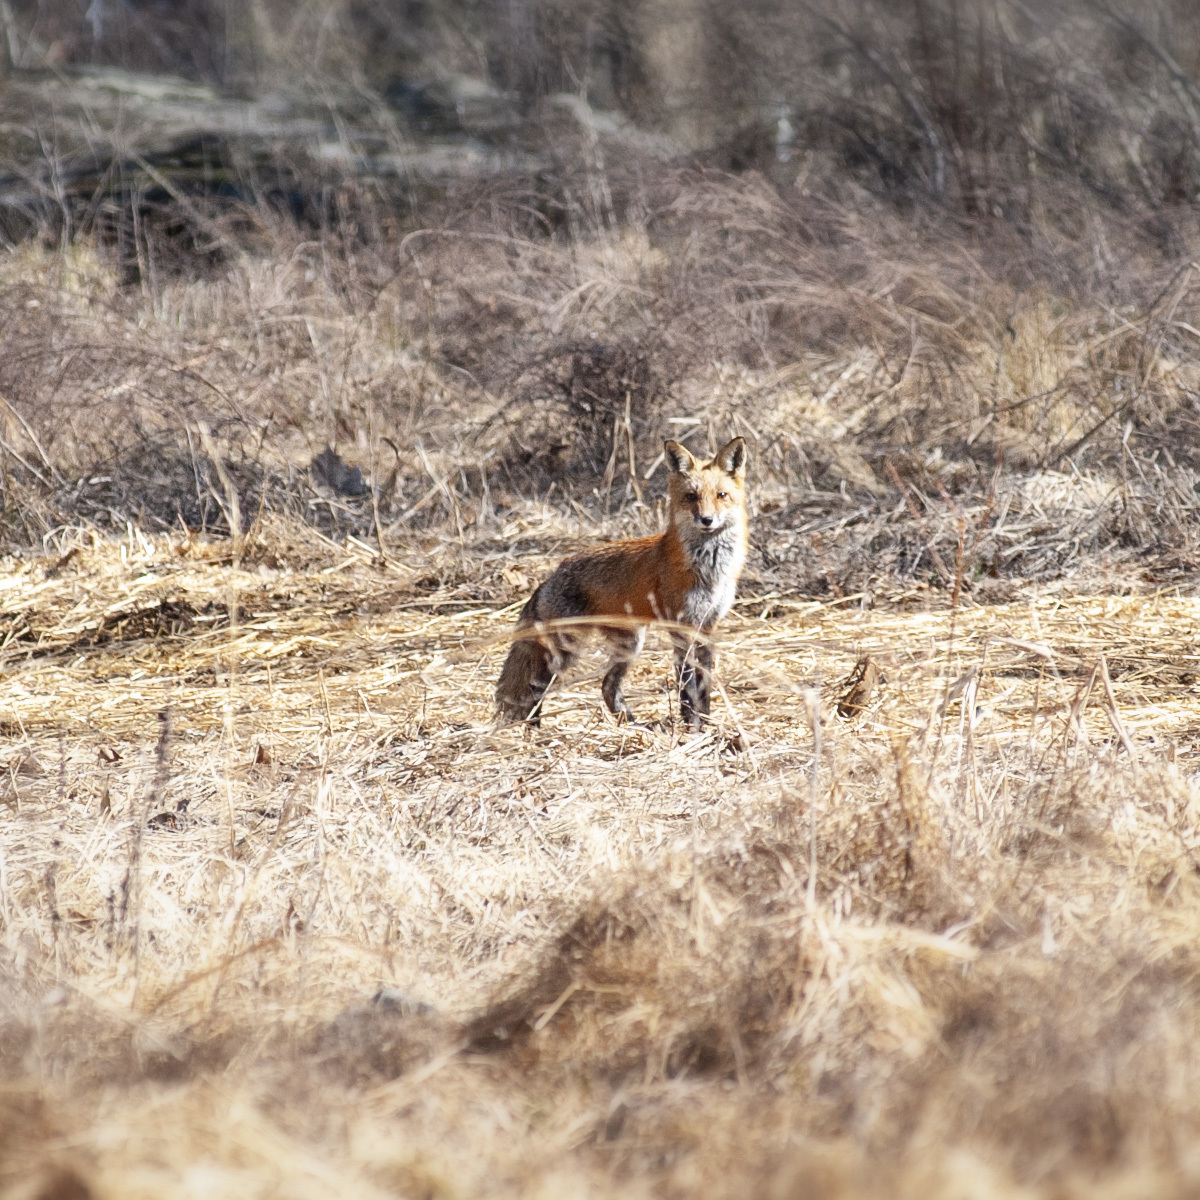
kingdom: Animalia
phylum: Chordata
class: Mammalia
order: Carnivora
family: Canidae
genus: Vulpes
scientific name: Vulpes vulpes
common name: Red fox
